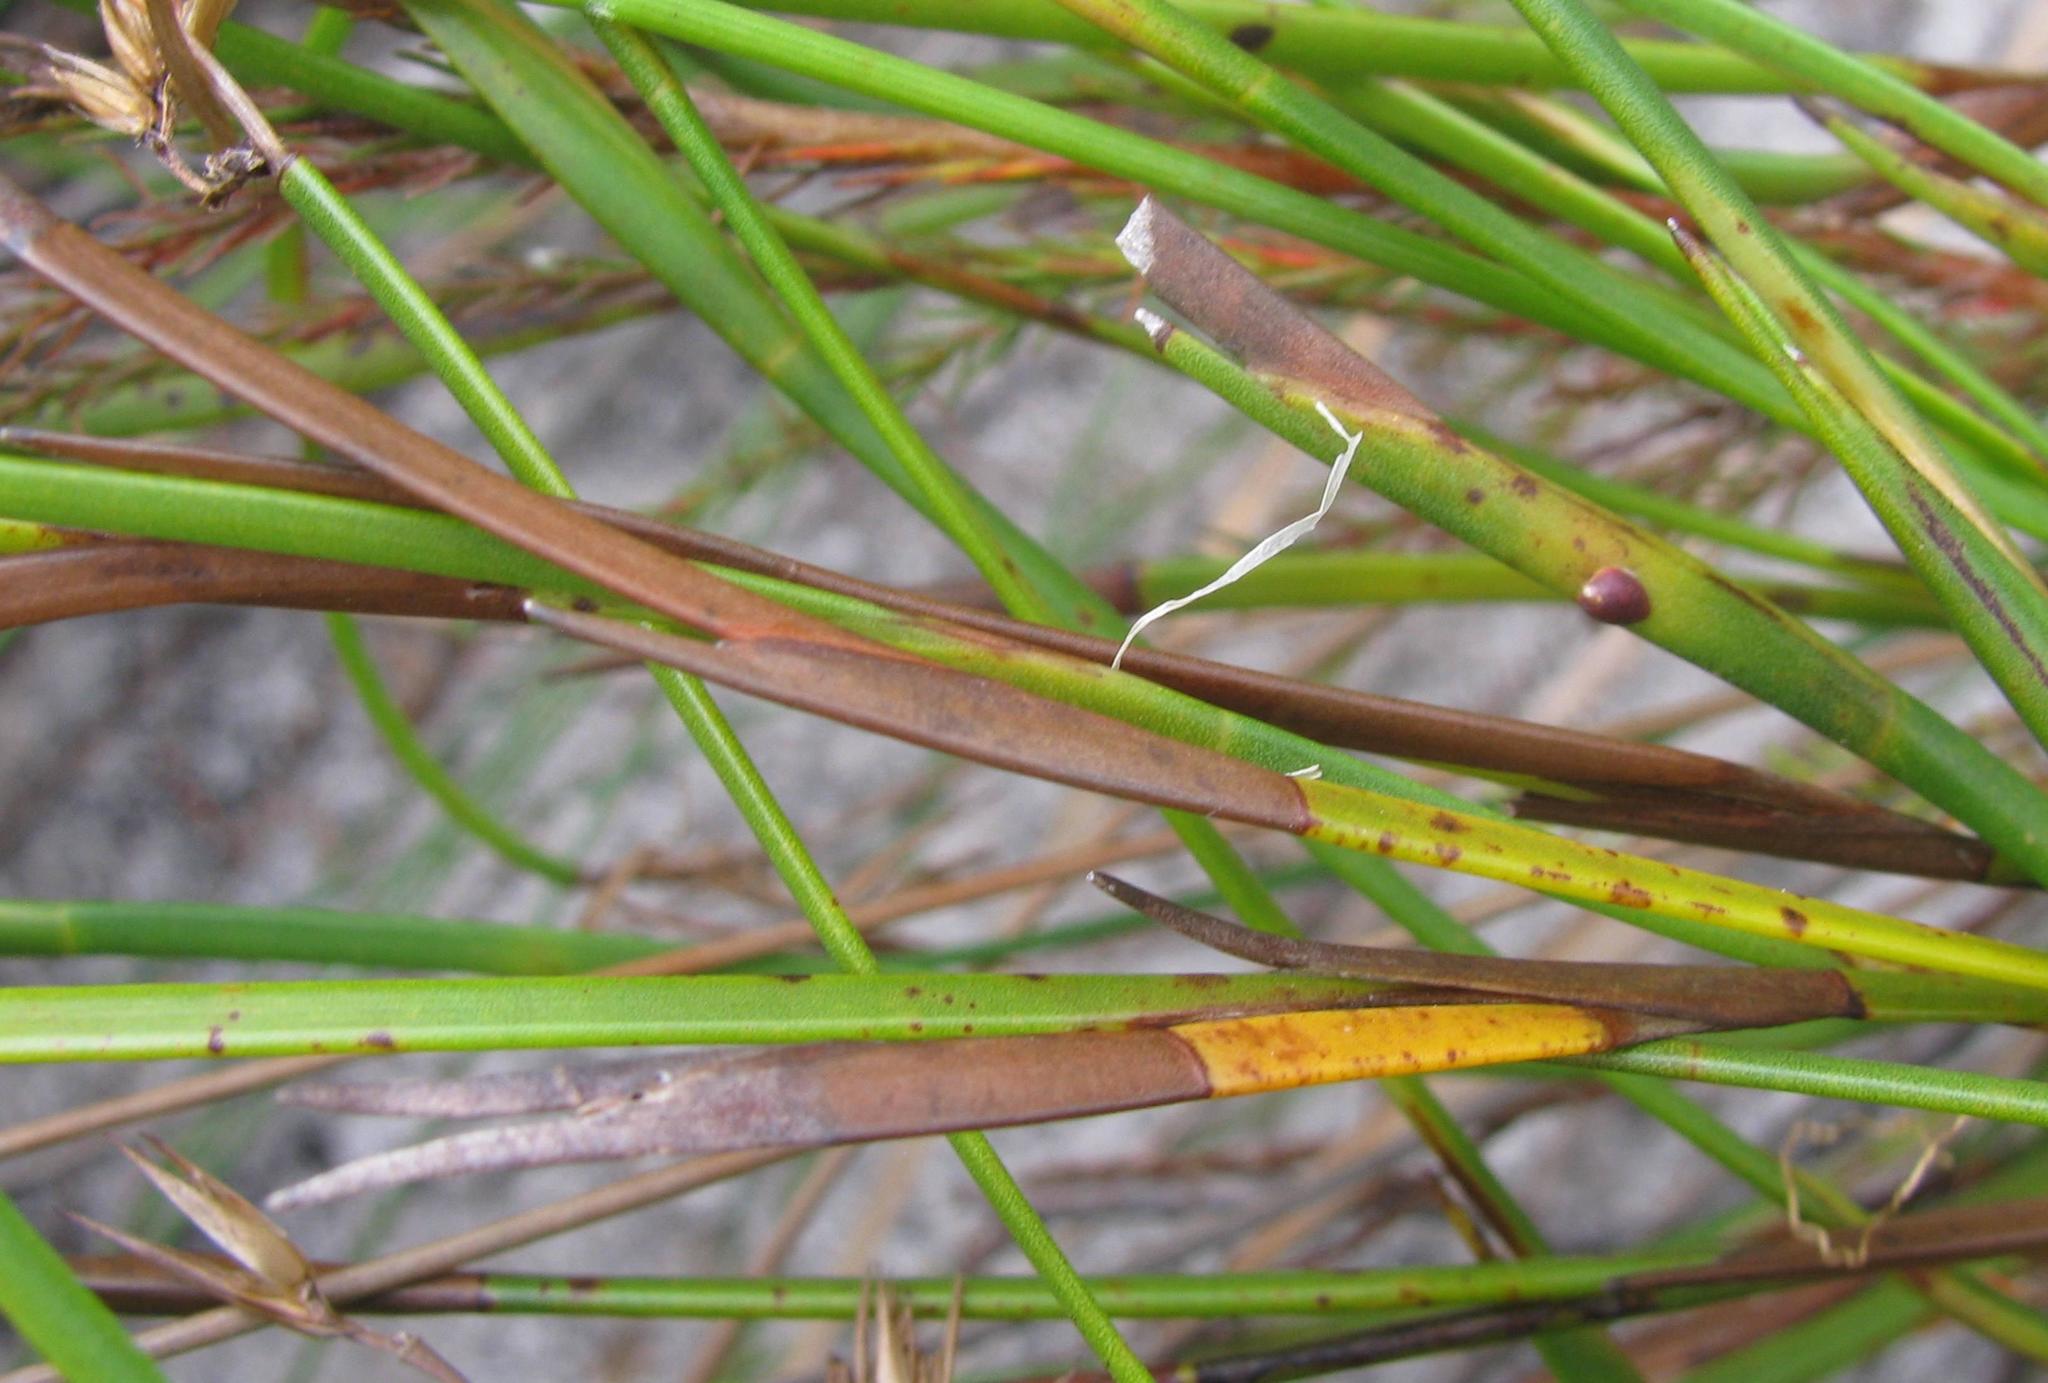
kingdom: Plantae
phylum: Tracheophyta
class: Liliopsida
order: Poales
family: Restionaceae
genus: Platycaulos
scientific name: Platycaulos cascadensis
